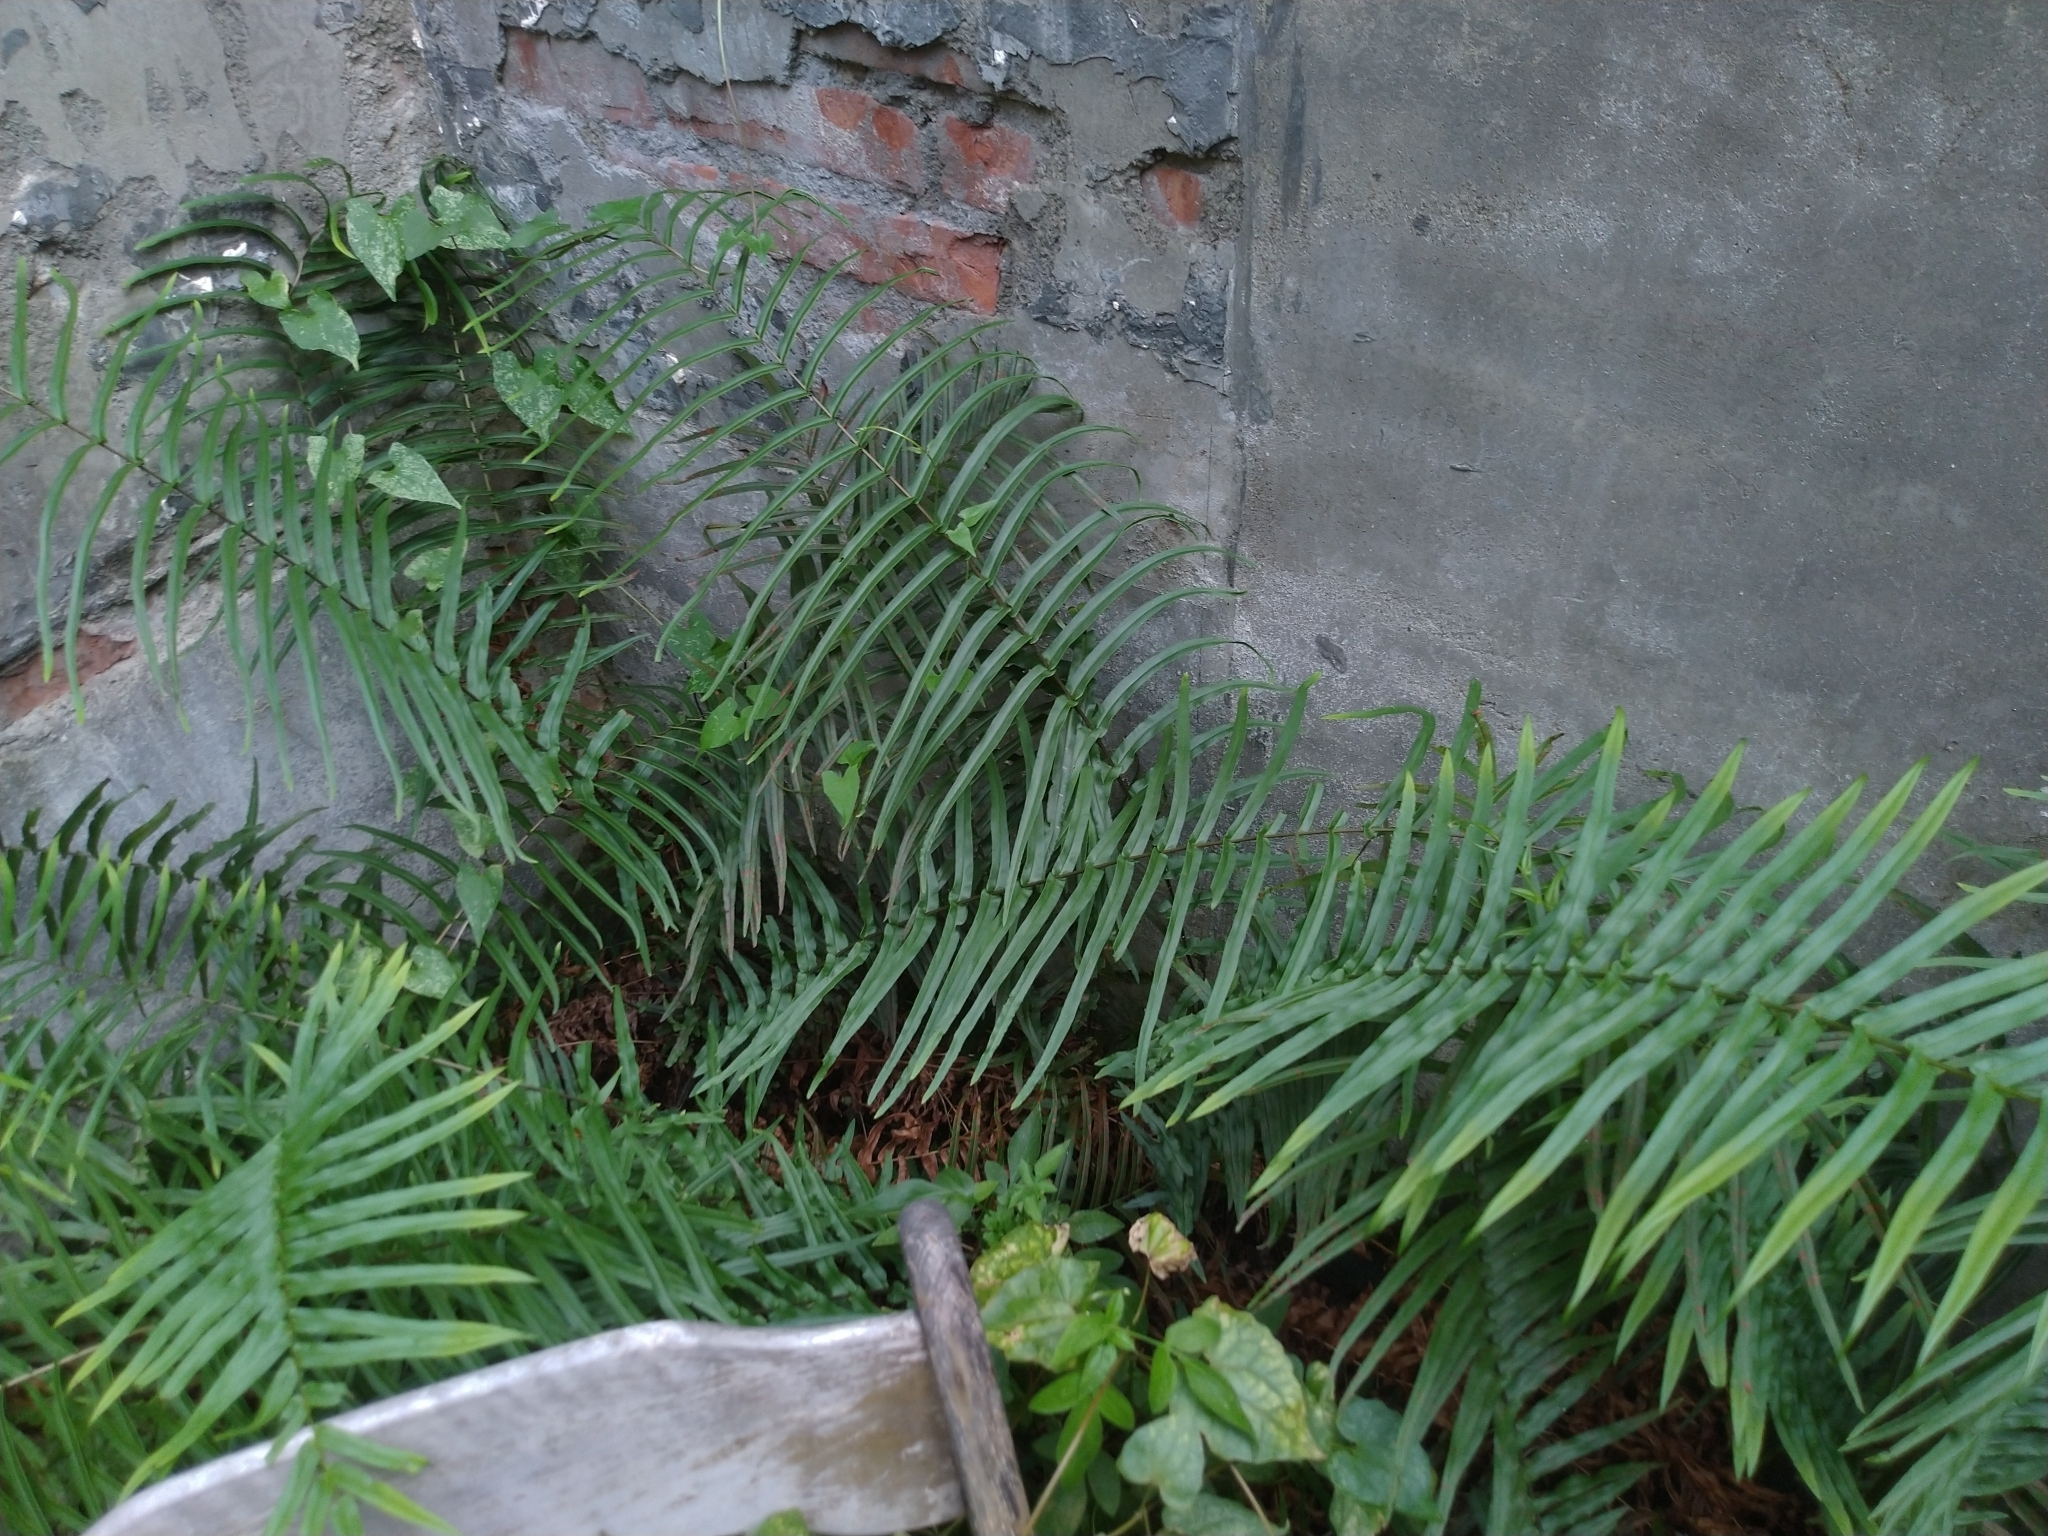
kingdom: Plantae
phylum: Tracheophyta
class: Polypodiopsida
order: Polypodiales
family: Pteridaceae
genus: Pteris
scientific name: Pteris vittata
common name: Ladder brake
